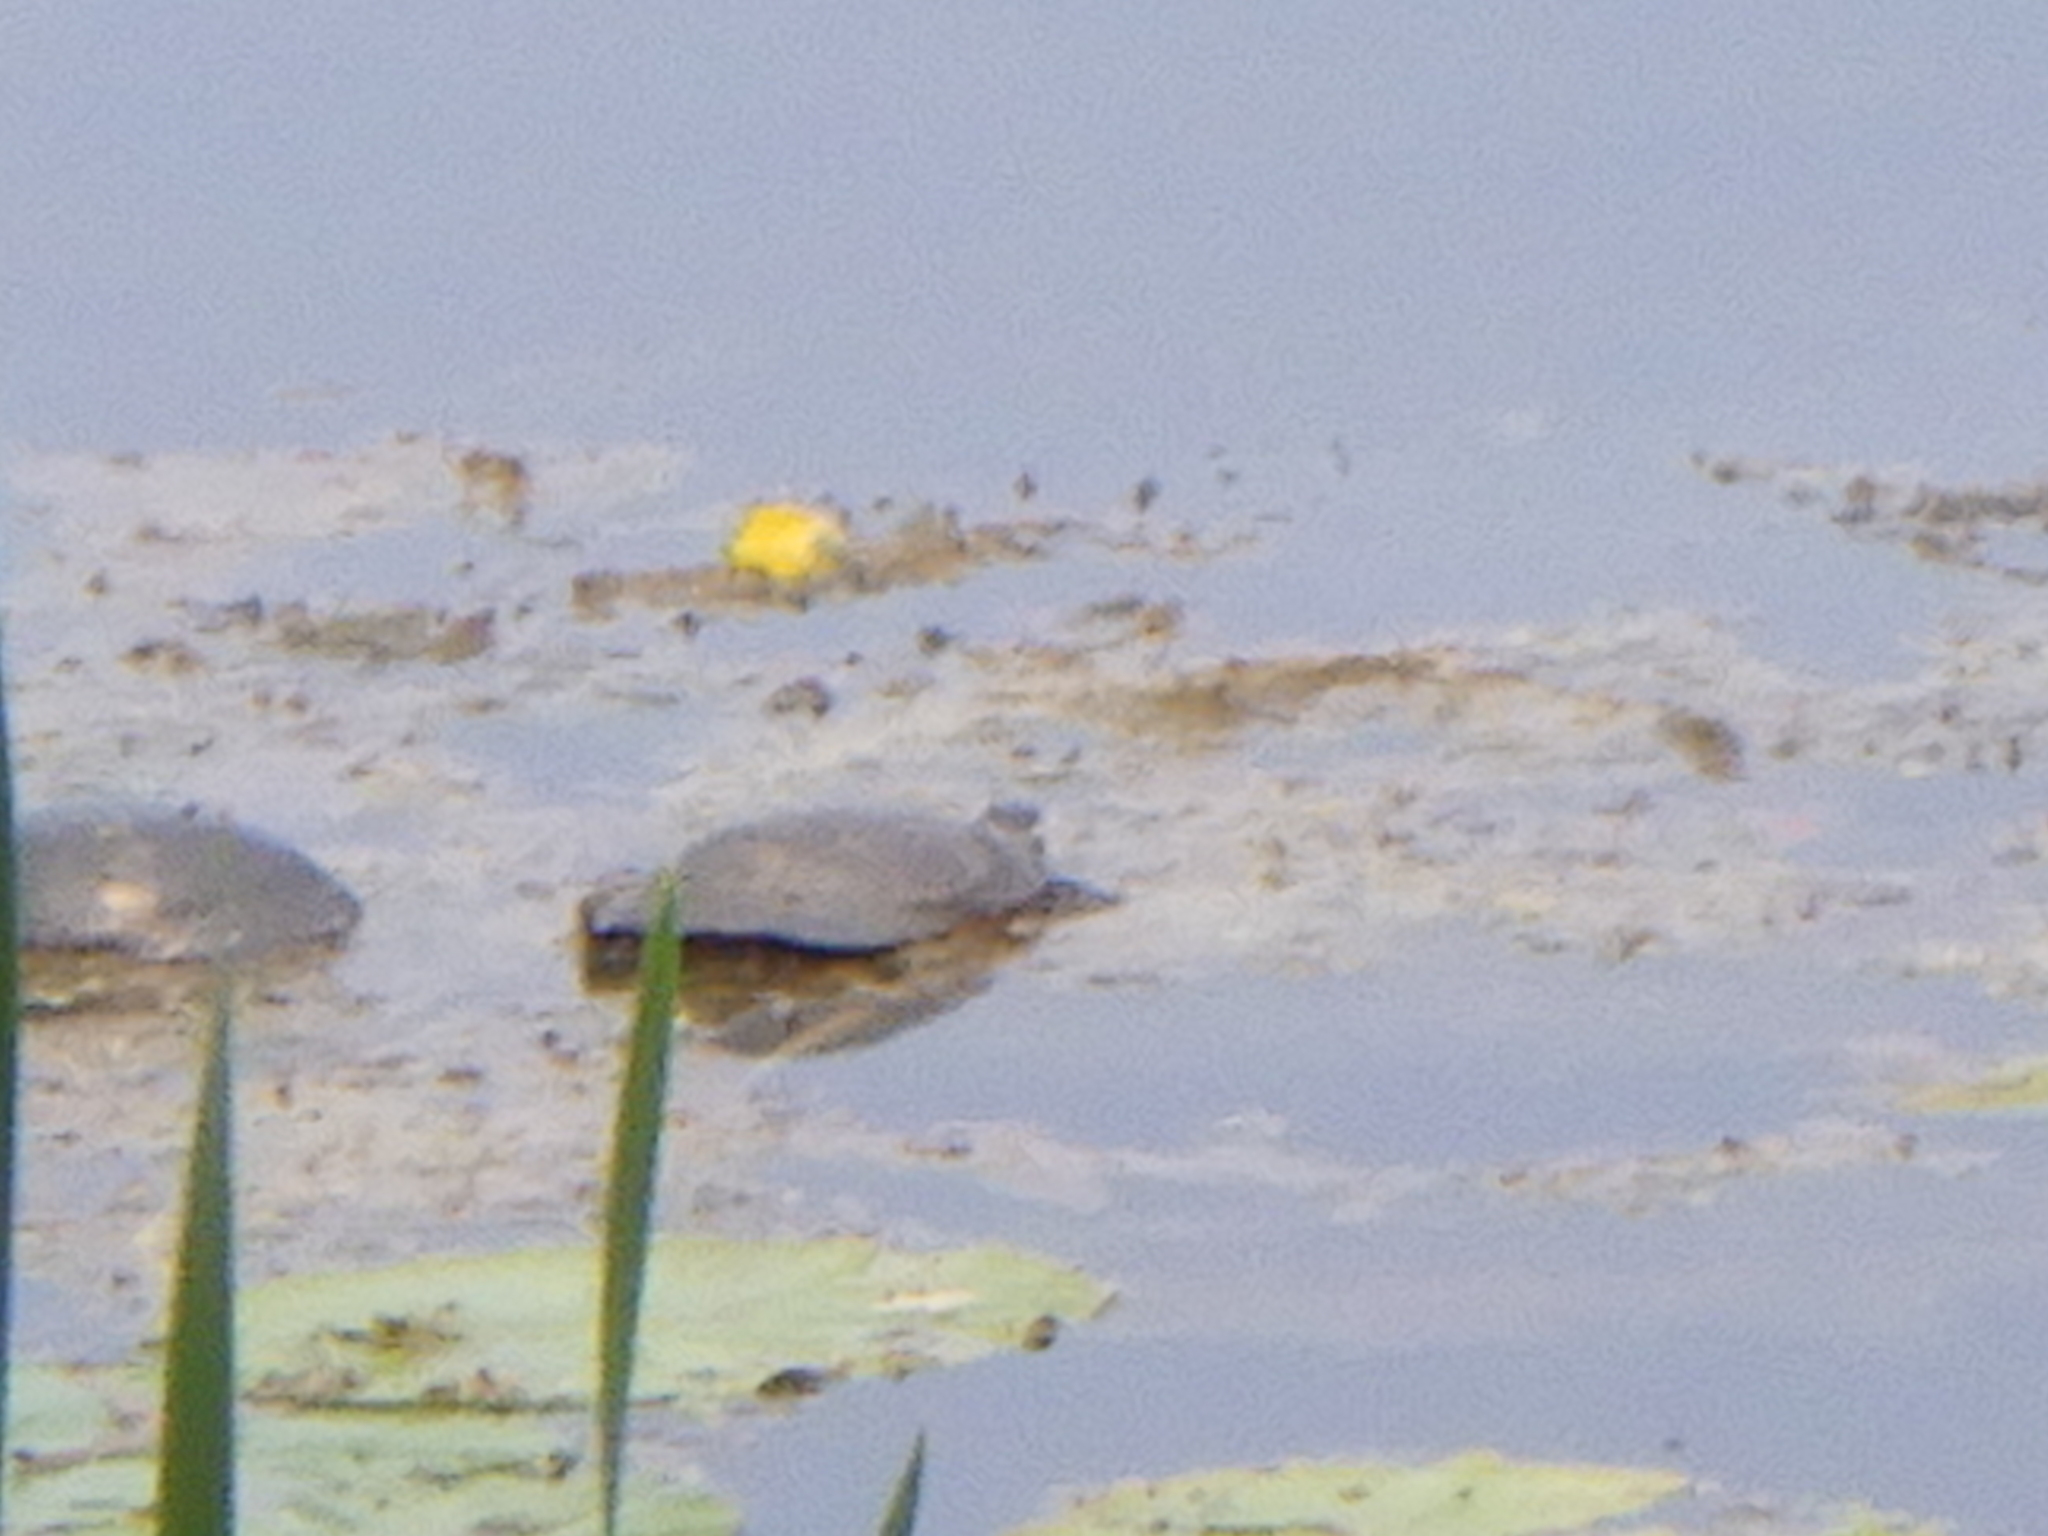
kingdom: Animalia
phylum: Chordata
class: Testudines
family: Emydidae
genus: Chrysemys
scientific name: Chrysemys picta
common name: Painted turtle
